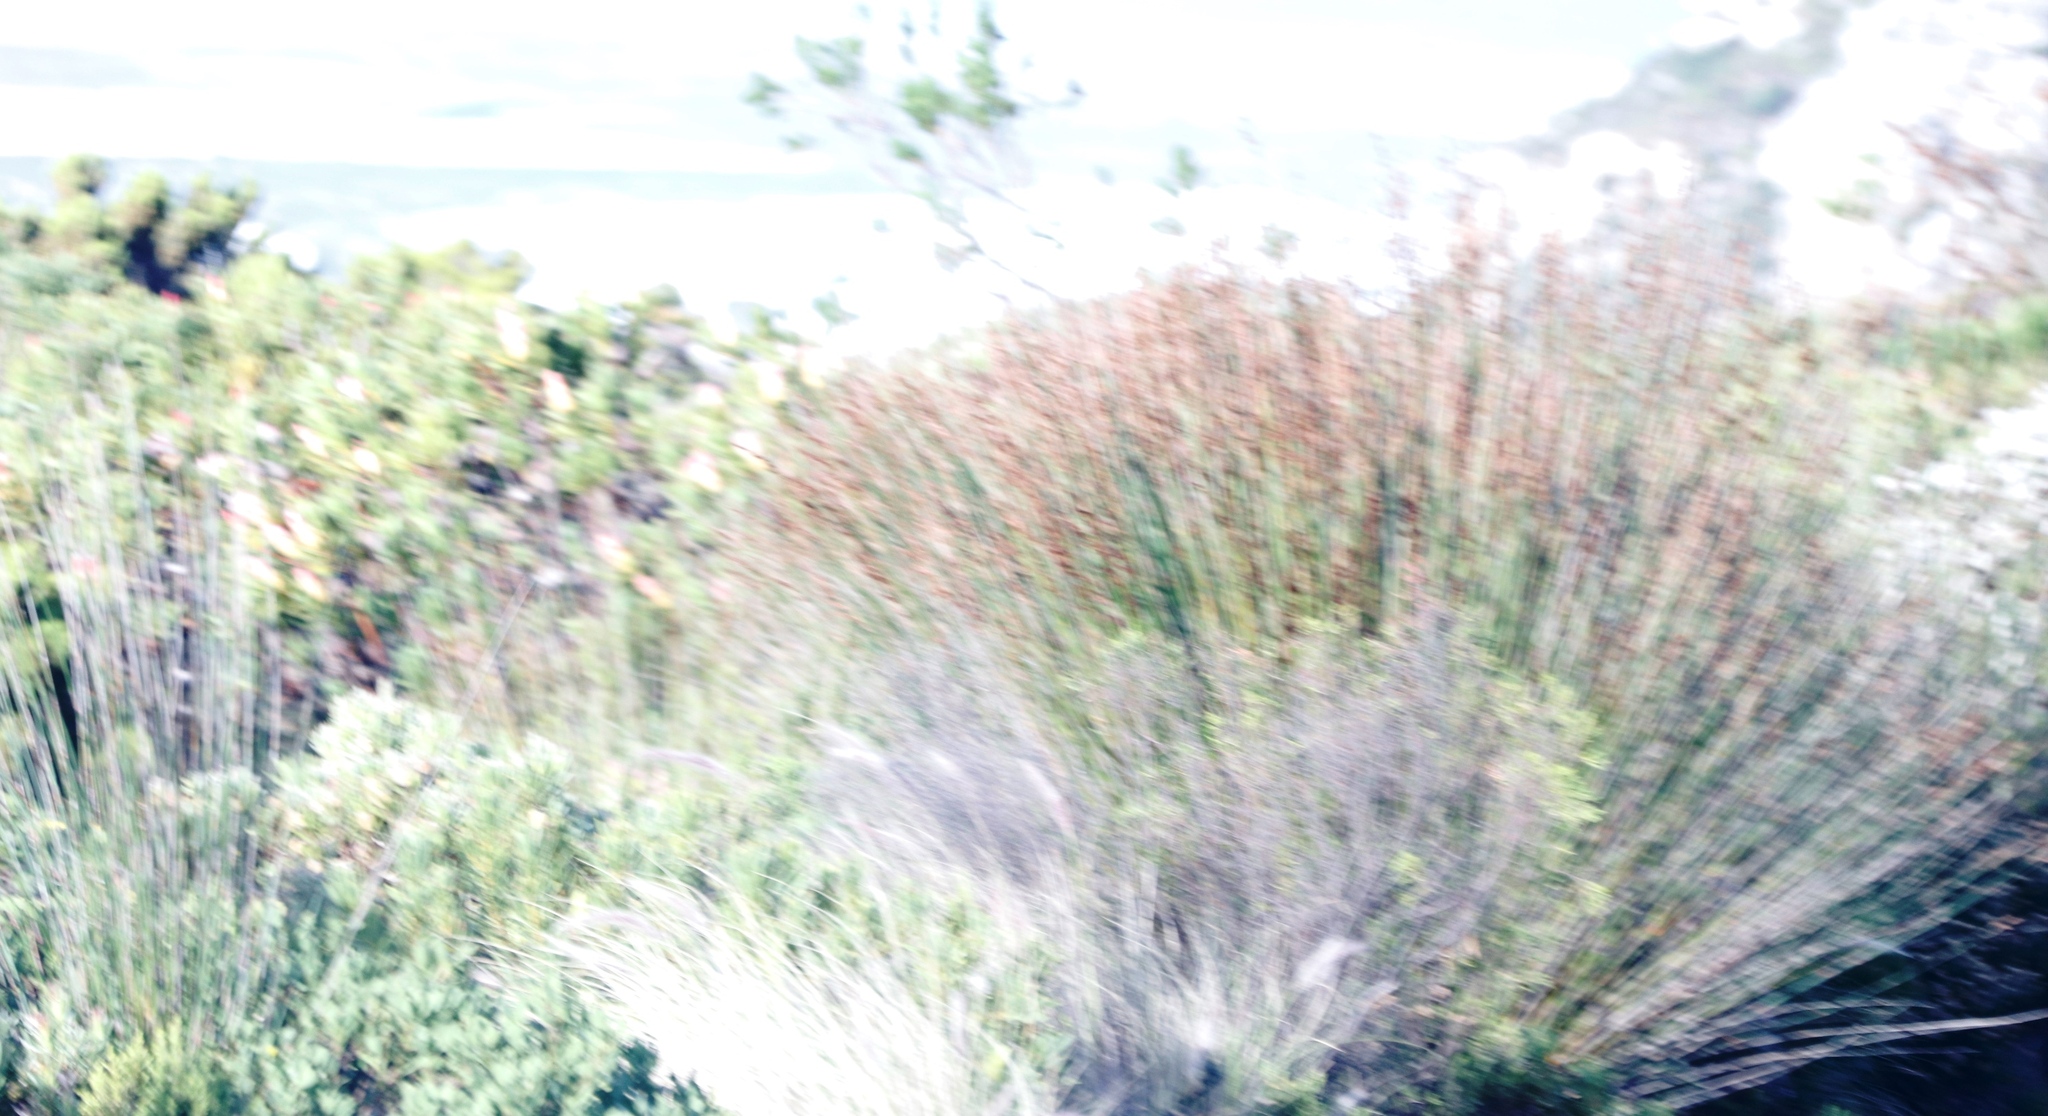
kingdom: Plantae
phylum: Tracheophyta
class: Liliopsida
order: Poales
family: Restionaceae
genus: Thamnochortus
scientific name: Thamnochortus insignis
